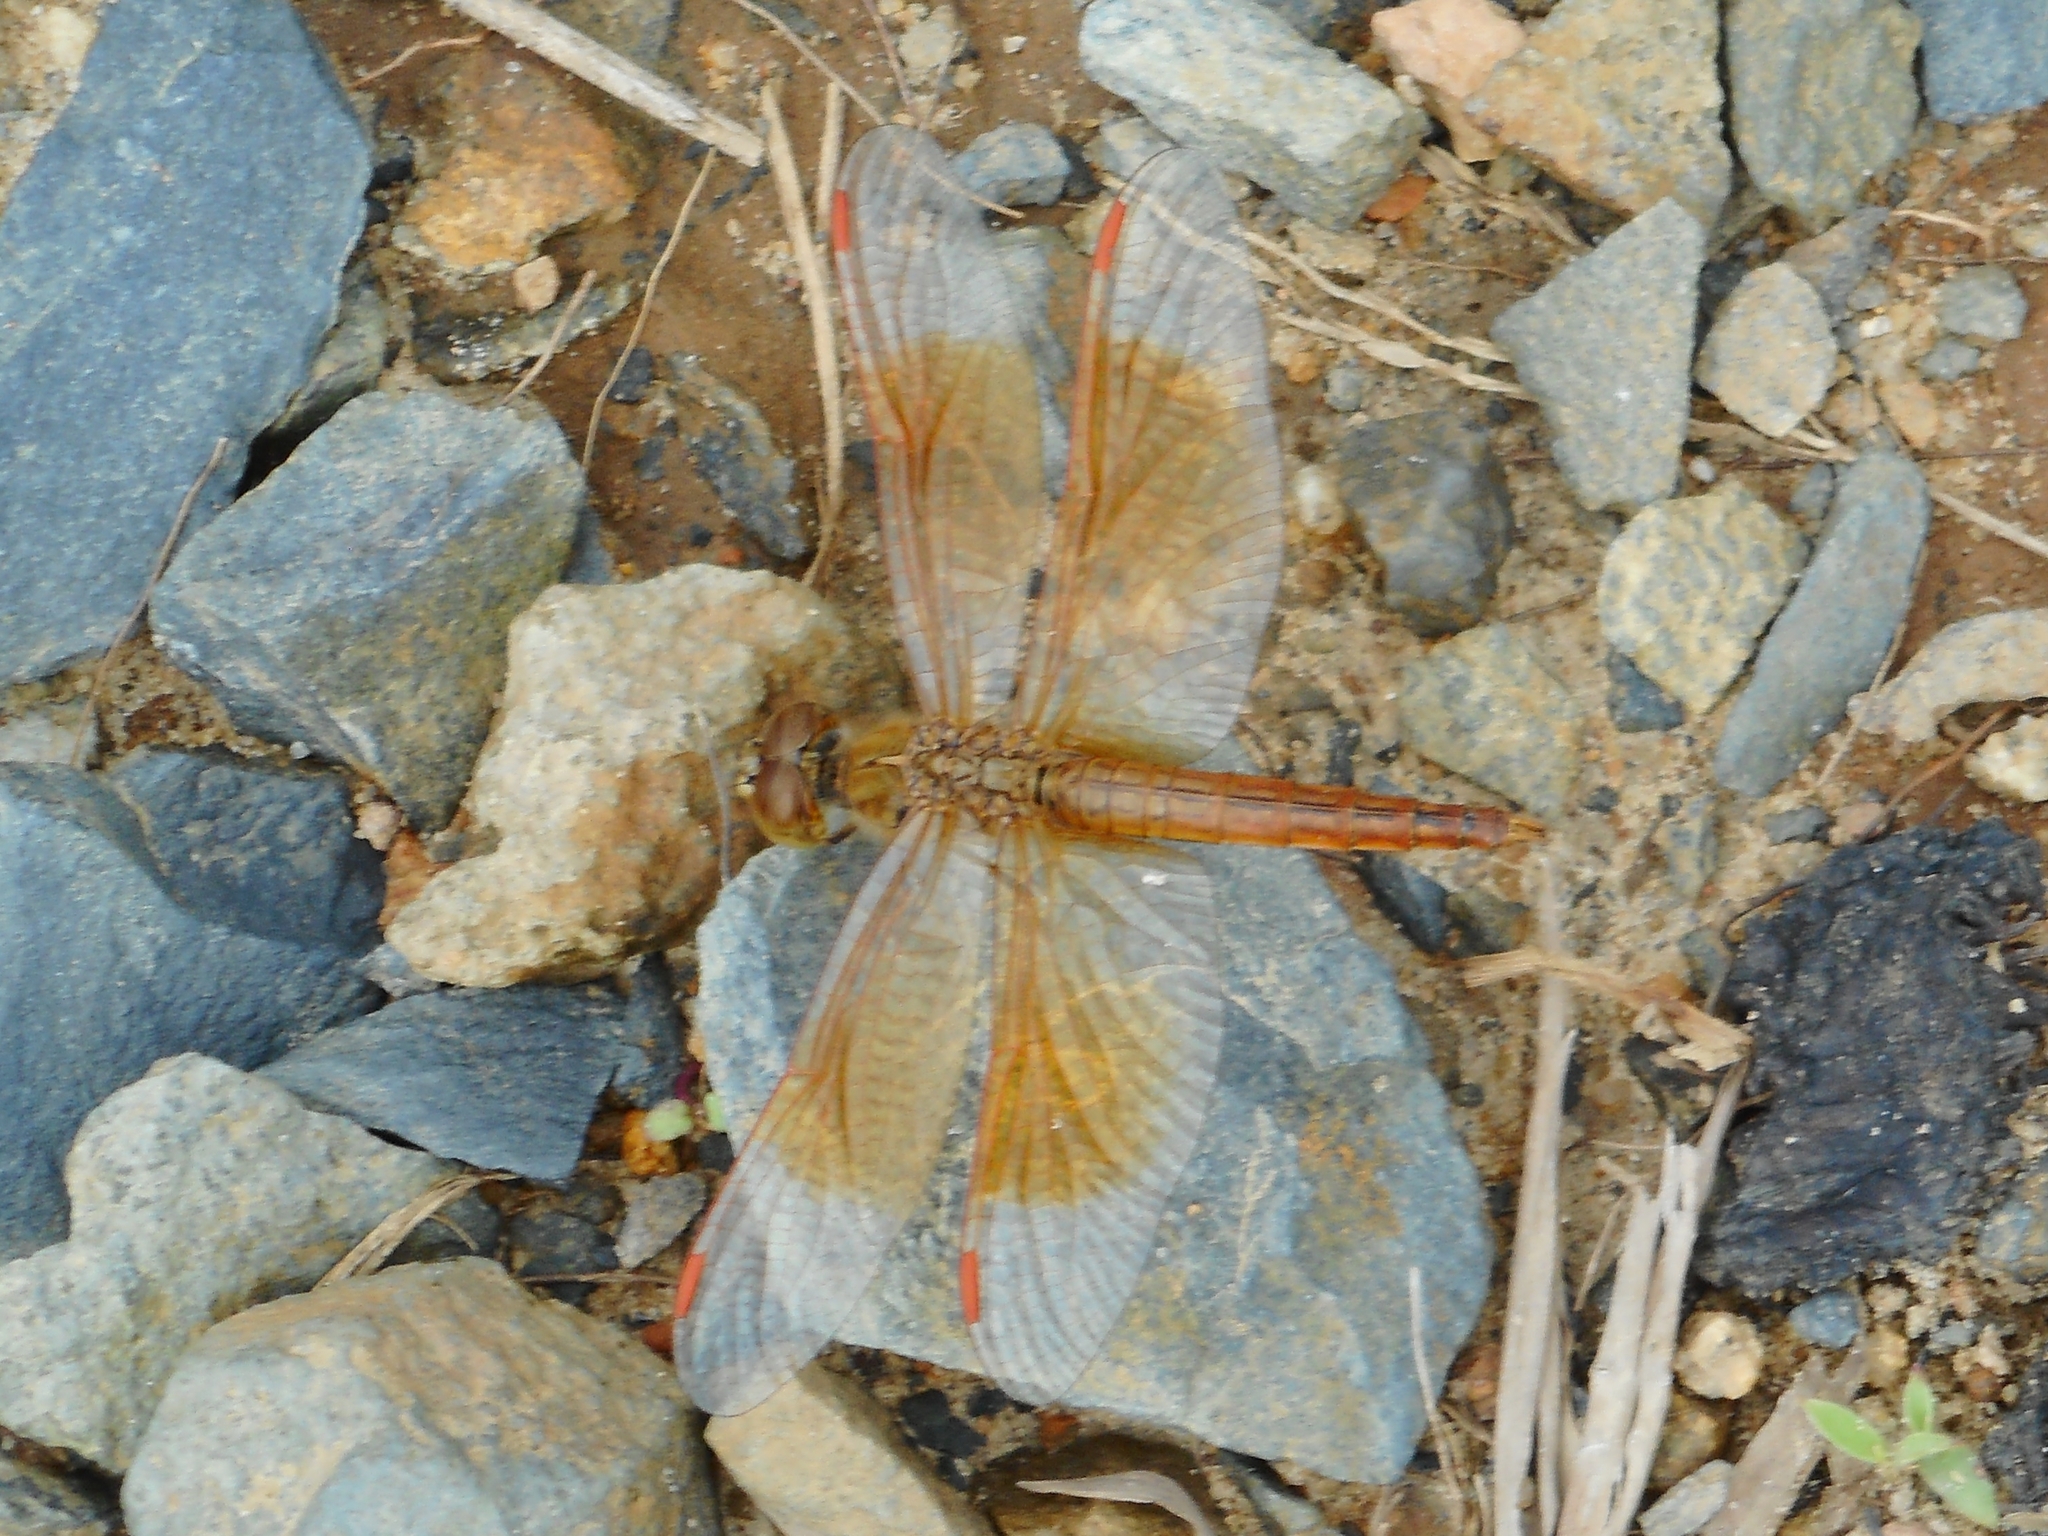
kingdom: Animalia
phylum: Arthropoda
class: Insecta
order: Odonata
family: Libellulidae
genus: Brachythemis
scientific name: Brachythemis contaminata
